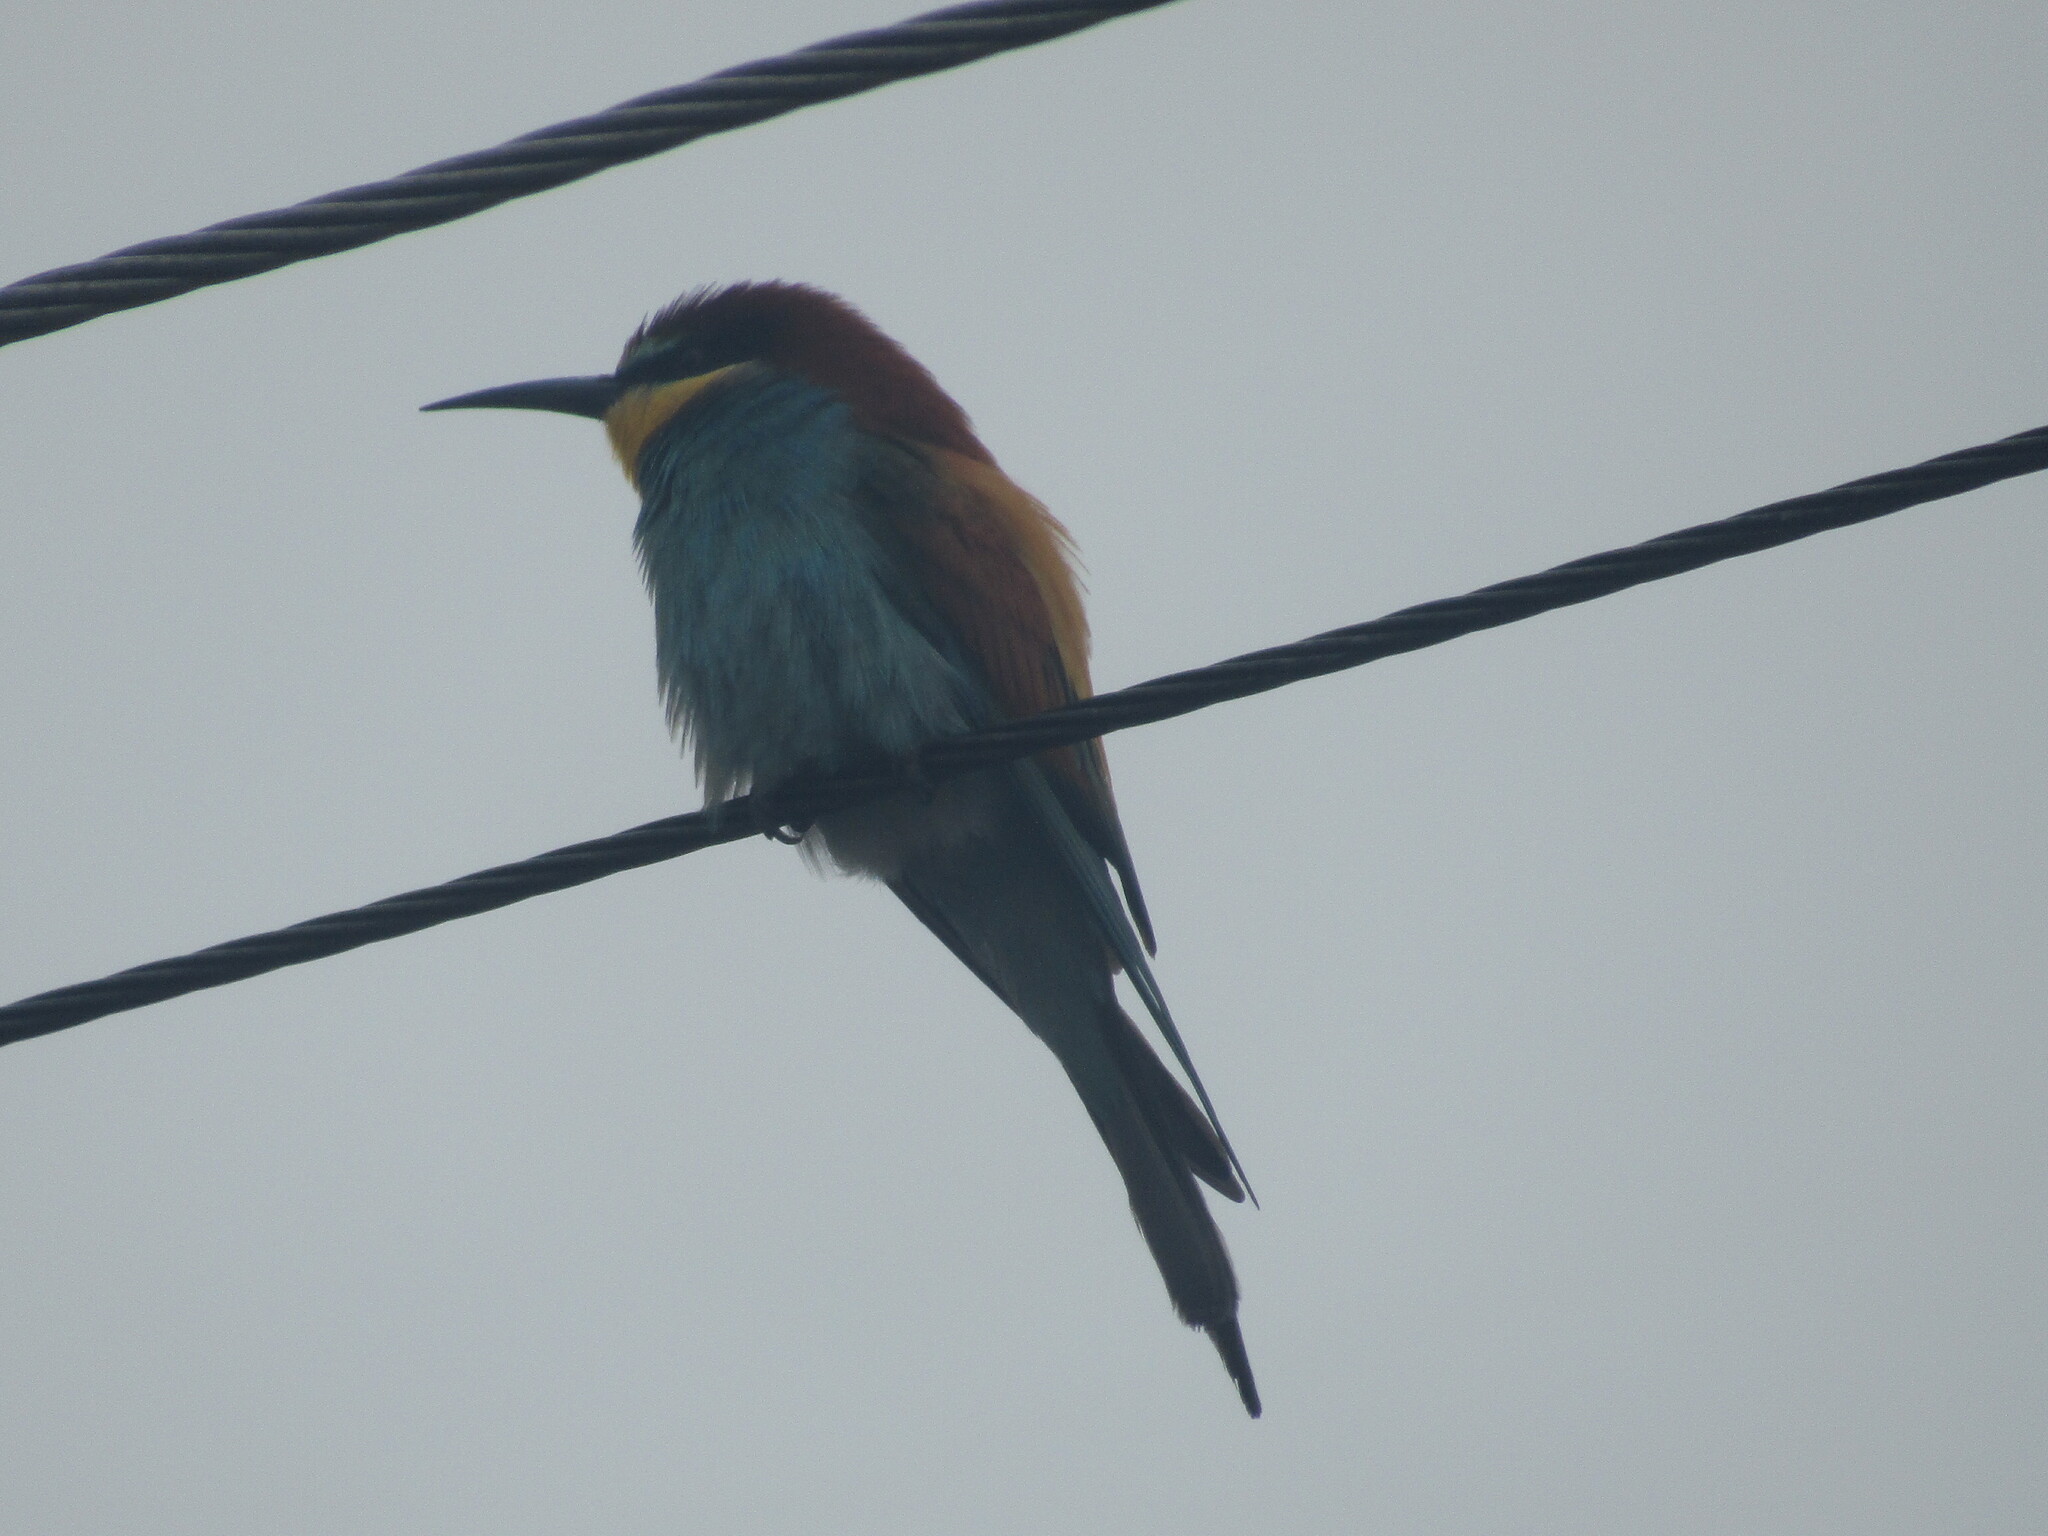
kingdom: Animalia
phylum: Chordata
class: Aves
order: Coraciiformes
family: Meropidae
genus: Merops
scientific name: Merops apiaster
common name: European bee-eater
